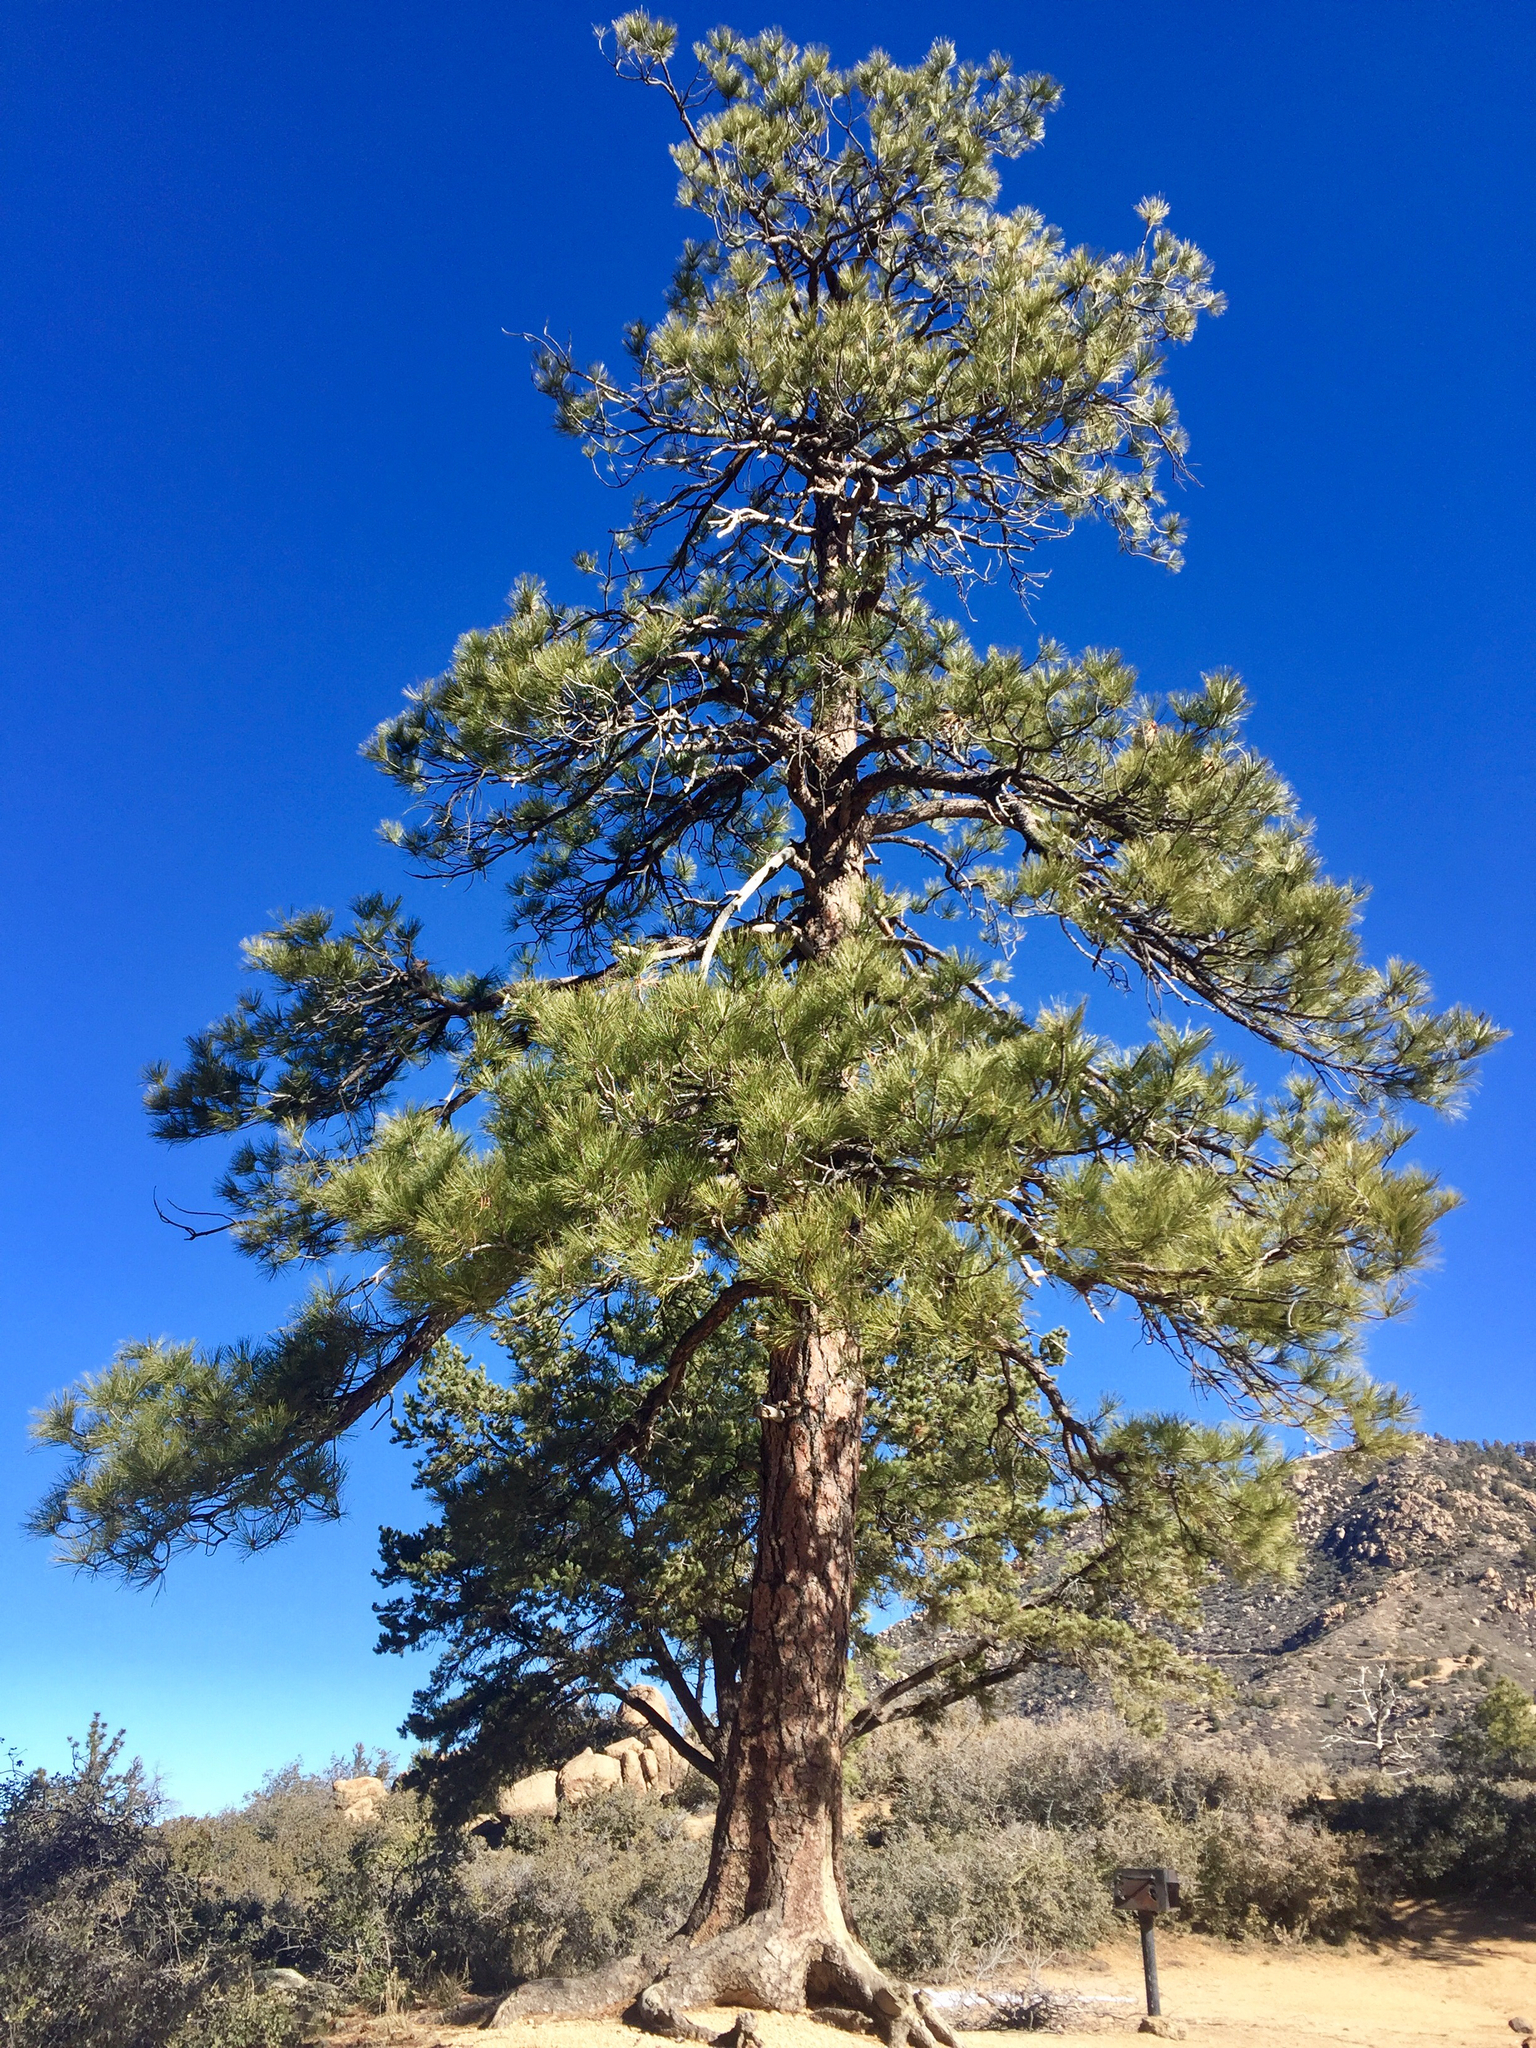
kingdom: Plantae
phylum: Tracheophyta
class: Pinopsida
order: Pinales
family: Pinaceae
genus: Pinus
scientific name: Pinus ponderosa
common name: Western yellow-pine
